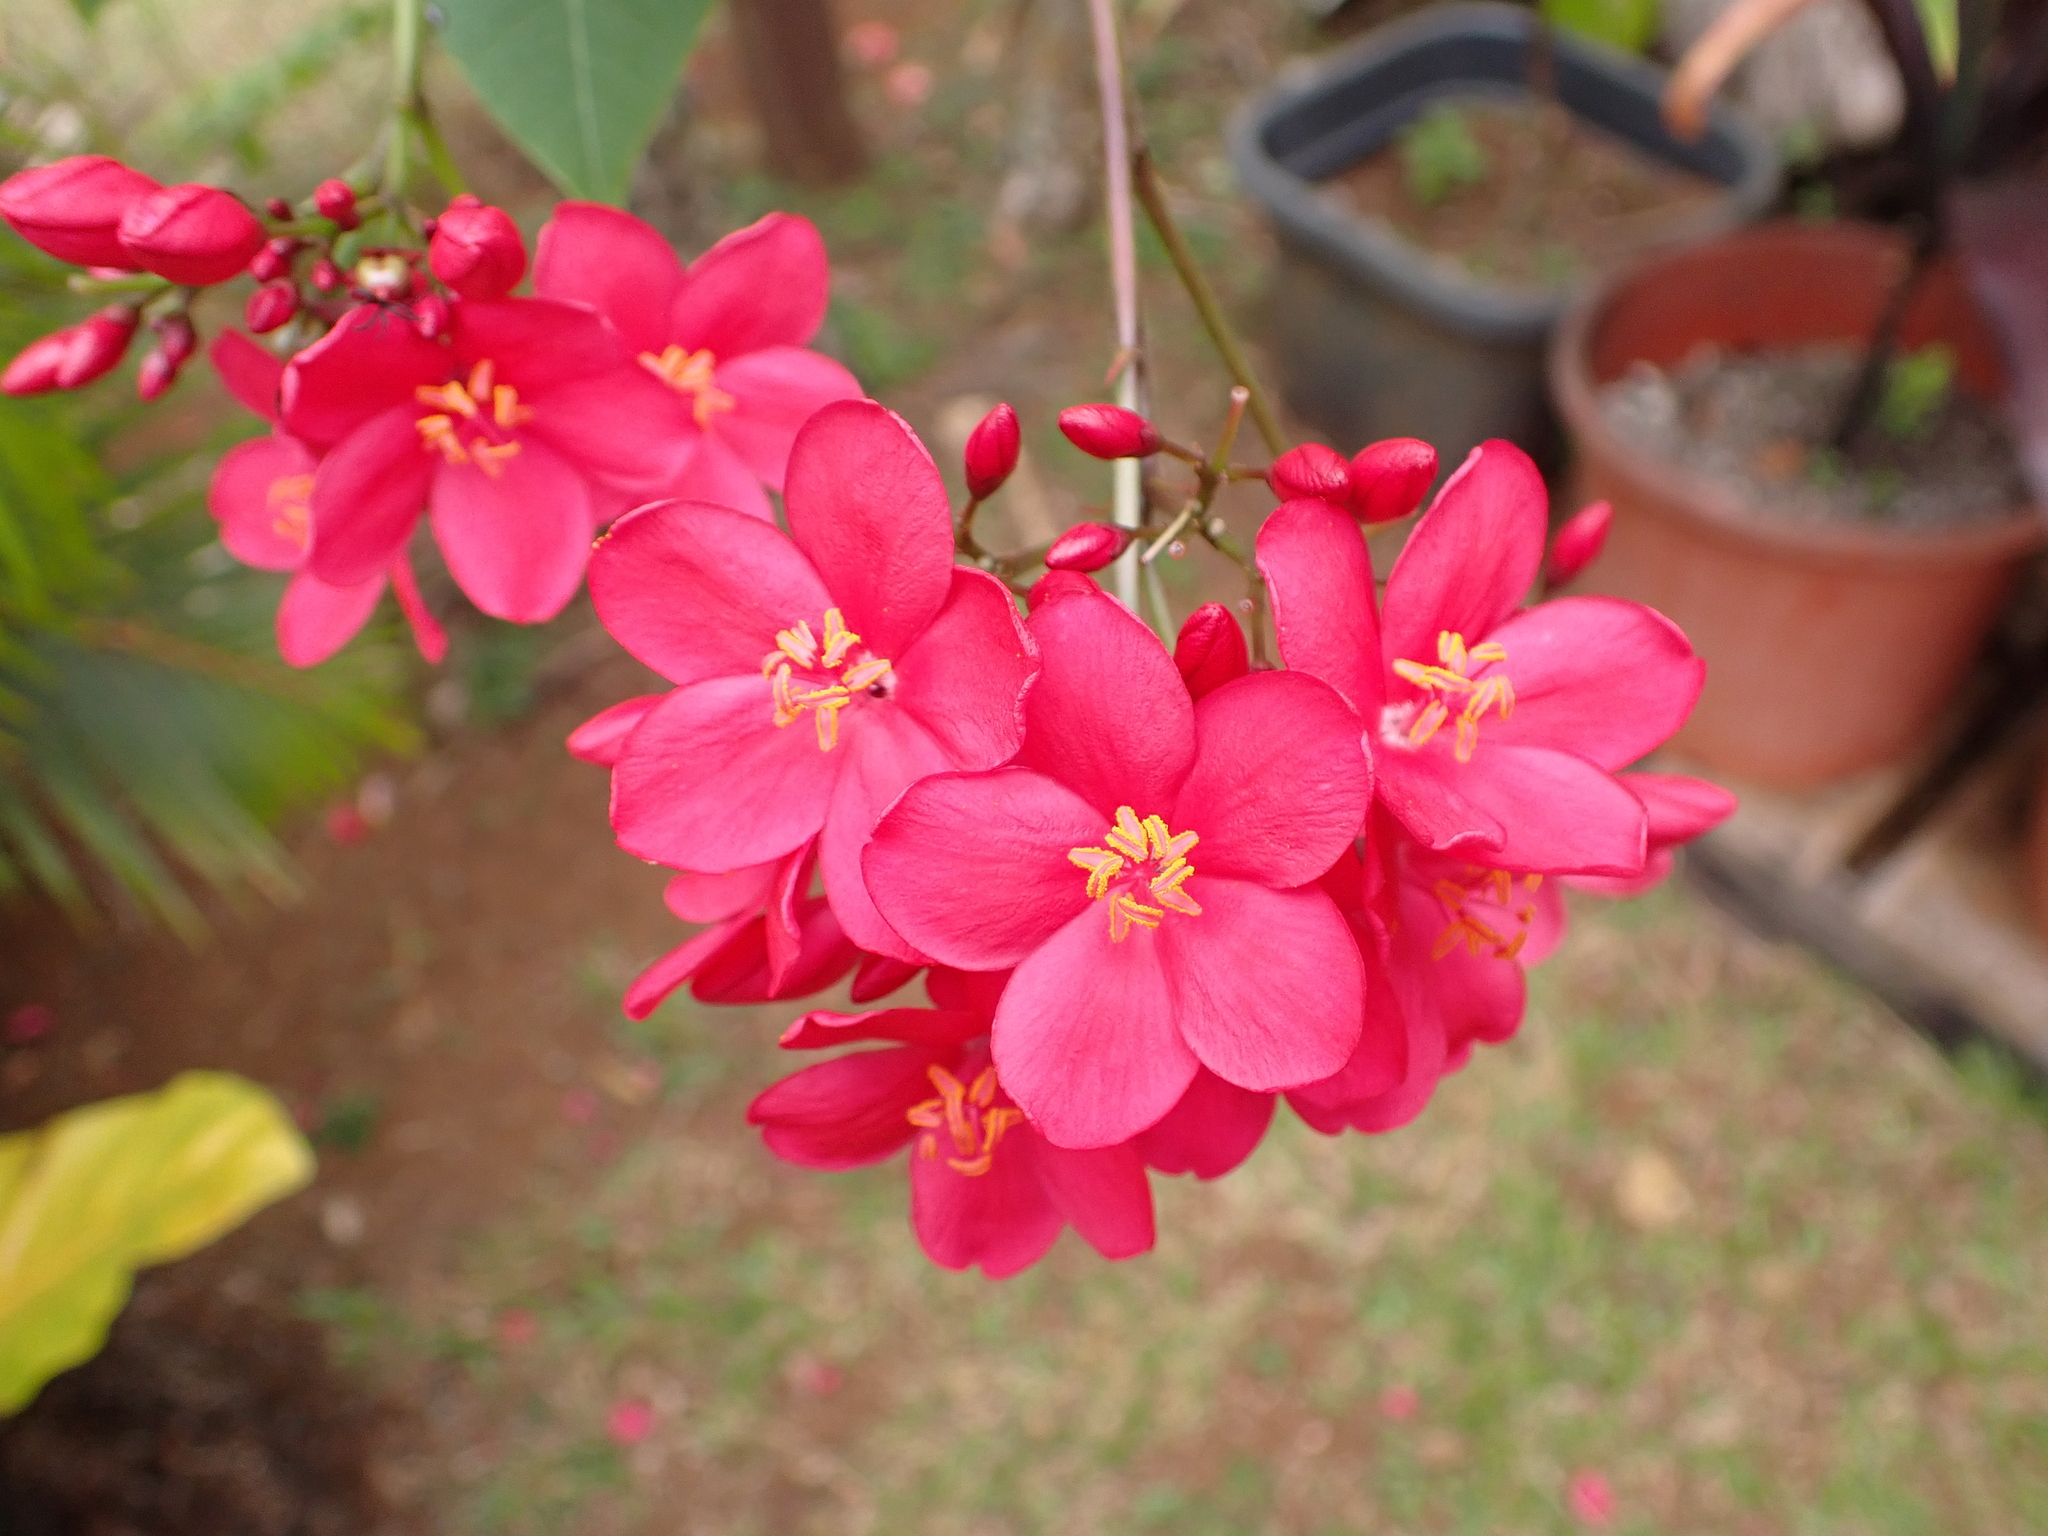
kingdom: Plantae
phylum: Tracheophyta
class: Magnoliopsida
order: Malpighiales
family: Euphorbiaceae
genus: Jatropha
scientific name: Jatropha integerrima
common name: Peregrina
